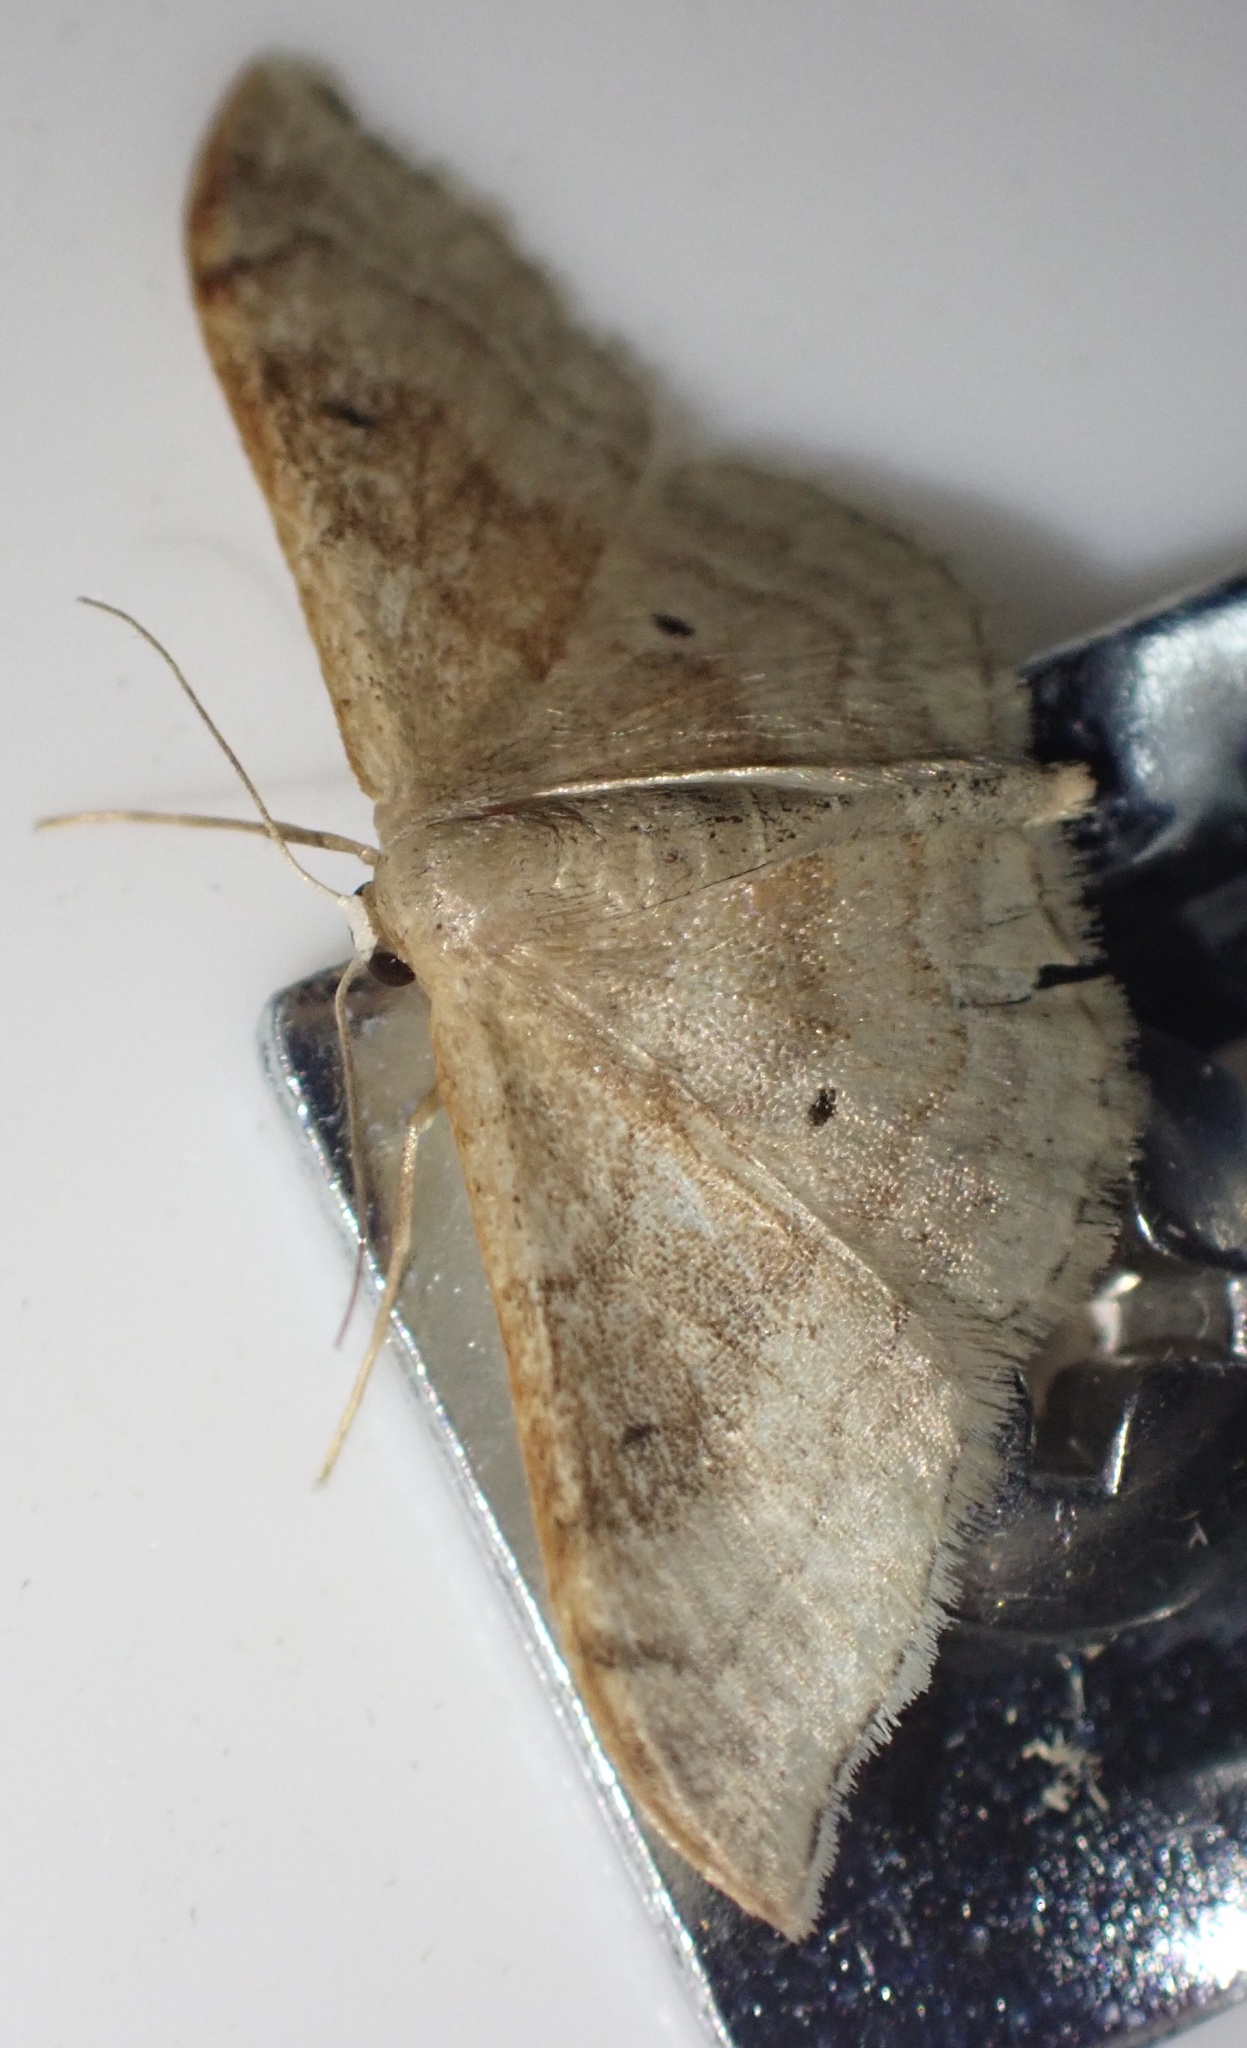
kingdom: Animalia
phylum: Arthropoda
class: Insecta
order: Lepidoptera
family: Geometridae
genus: Idaea
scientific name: Idaea degeneraria
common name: Portland ribbon wave
